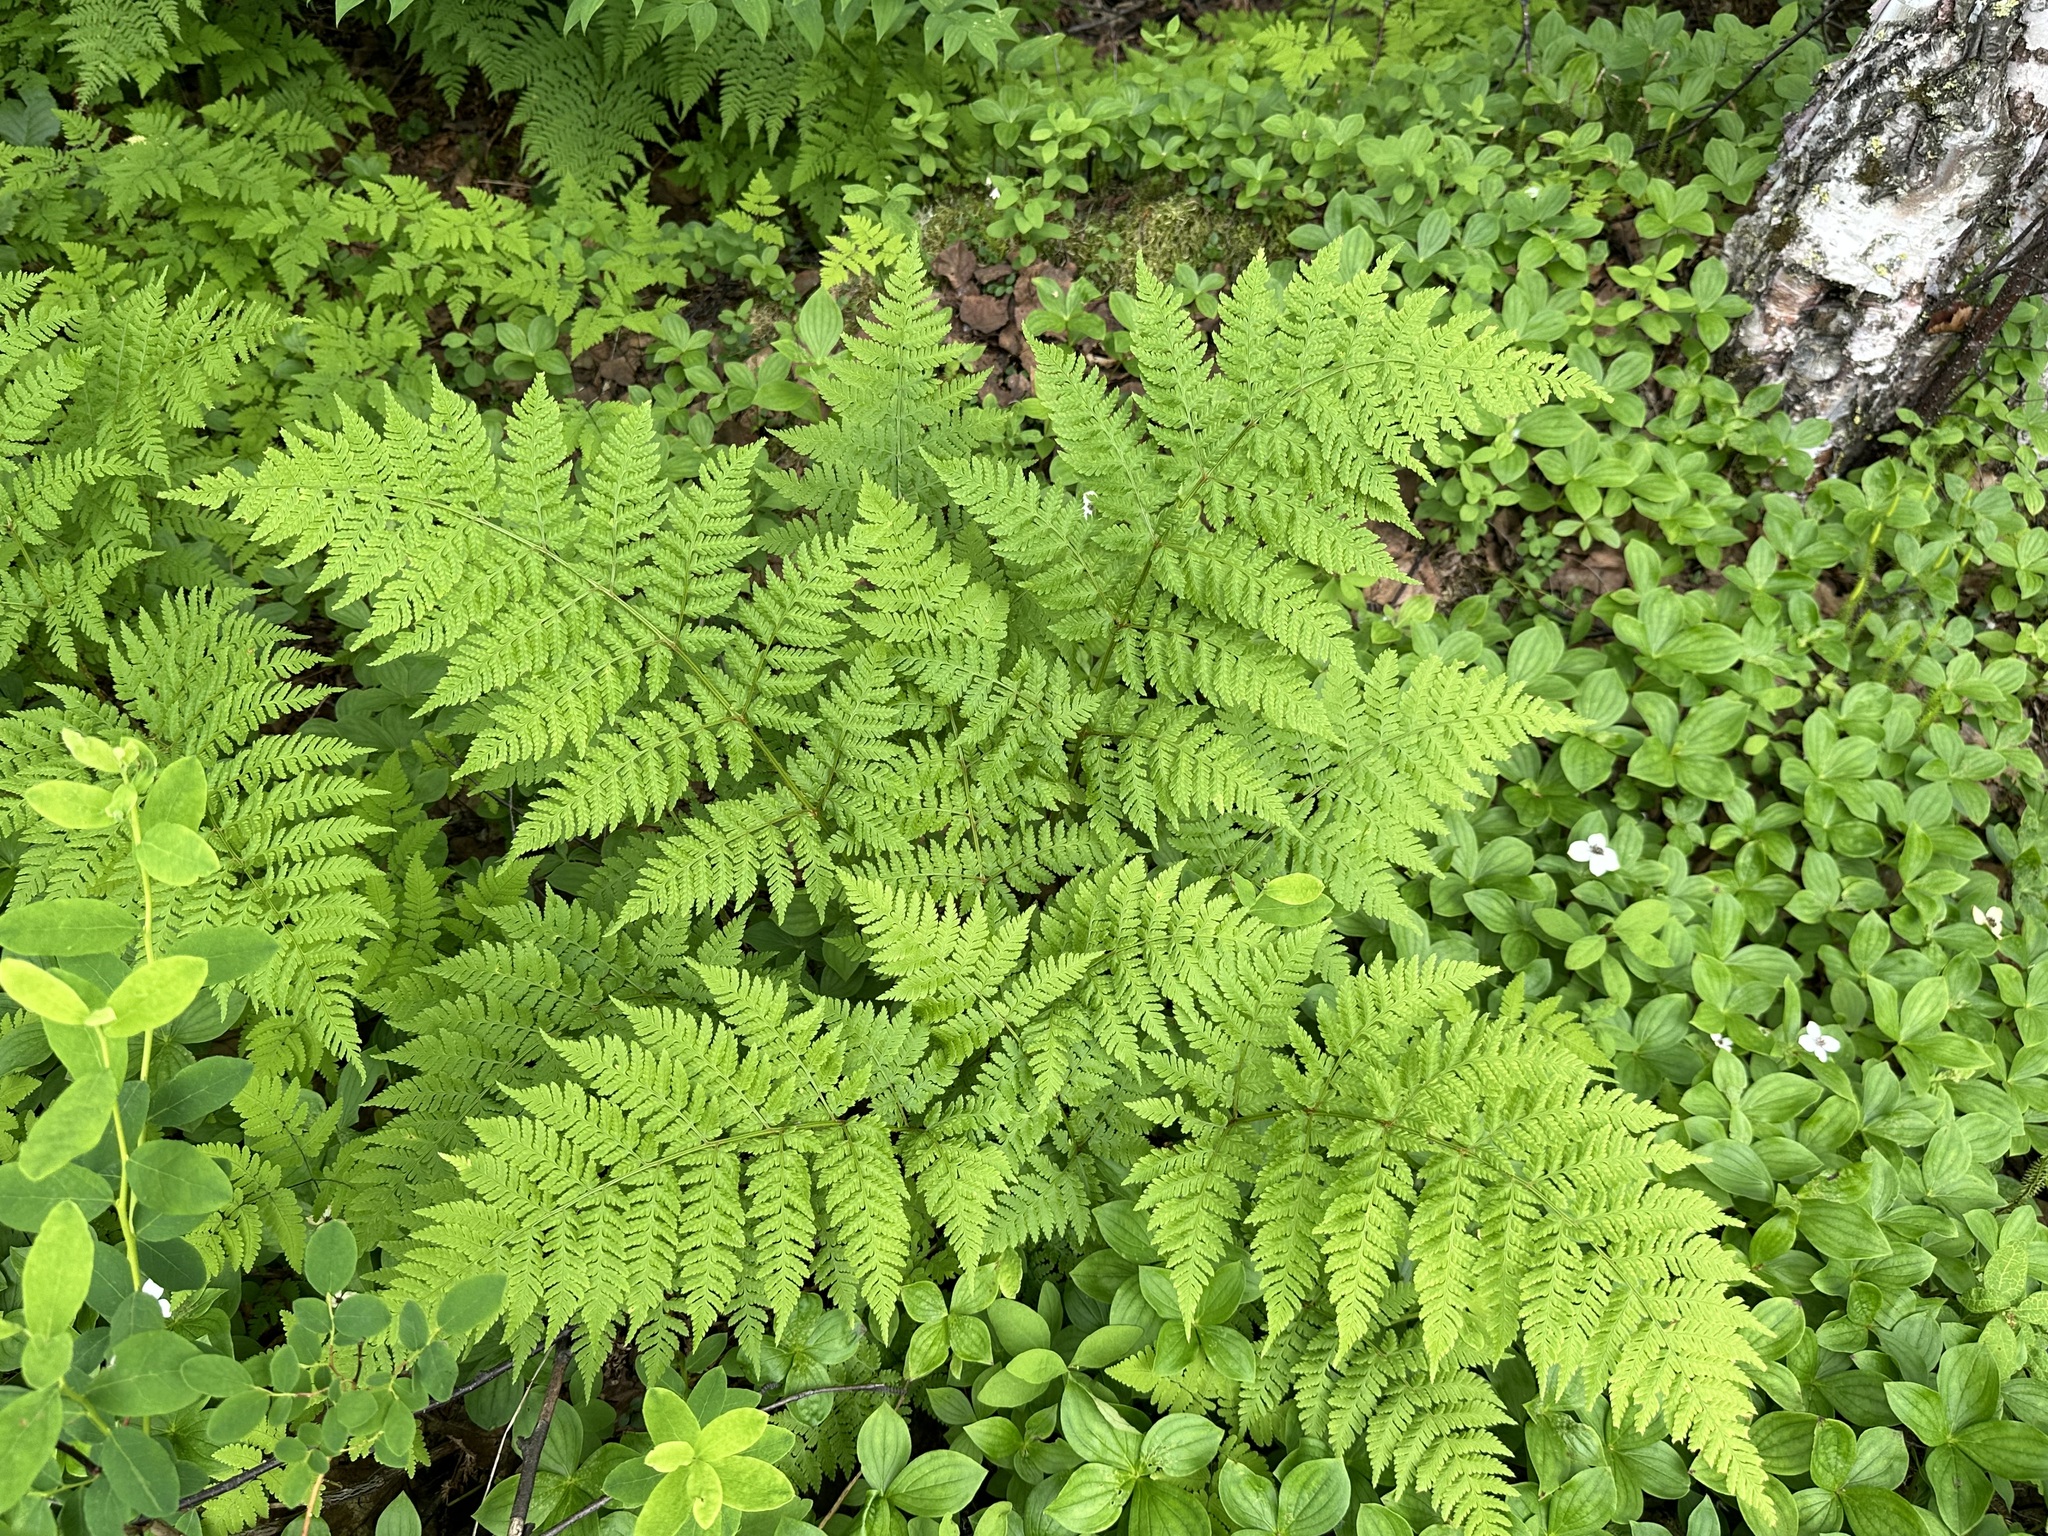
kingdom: Plantae
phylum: Tracheophyta
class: Polypodiopsida
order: Polypodiales
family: Dryopteridaceae
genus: Dryopteris
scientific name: Dryopteris expansa
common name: Northern buckler fern
